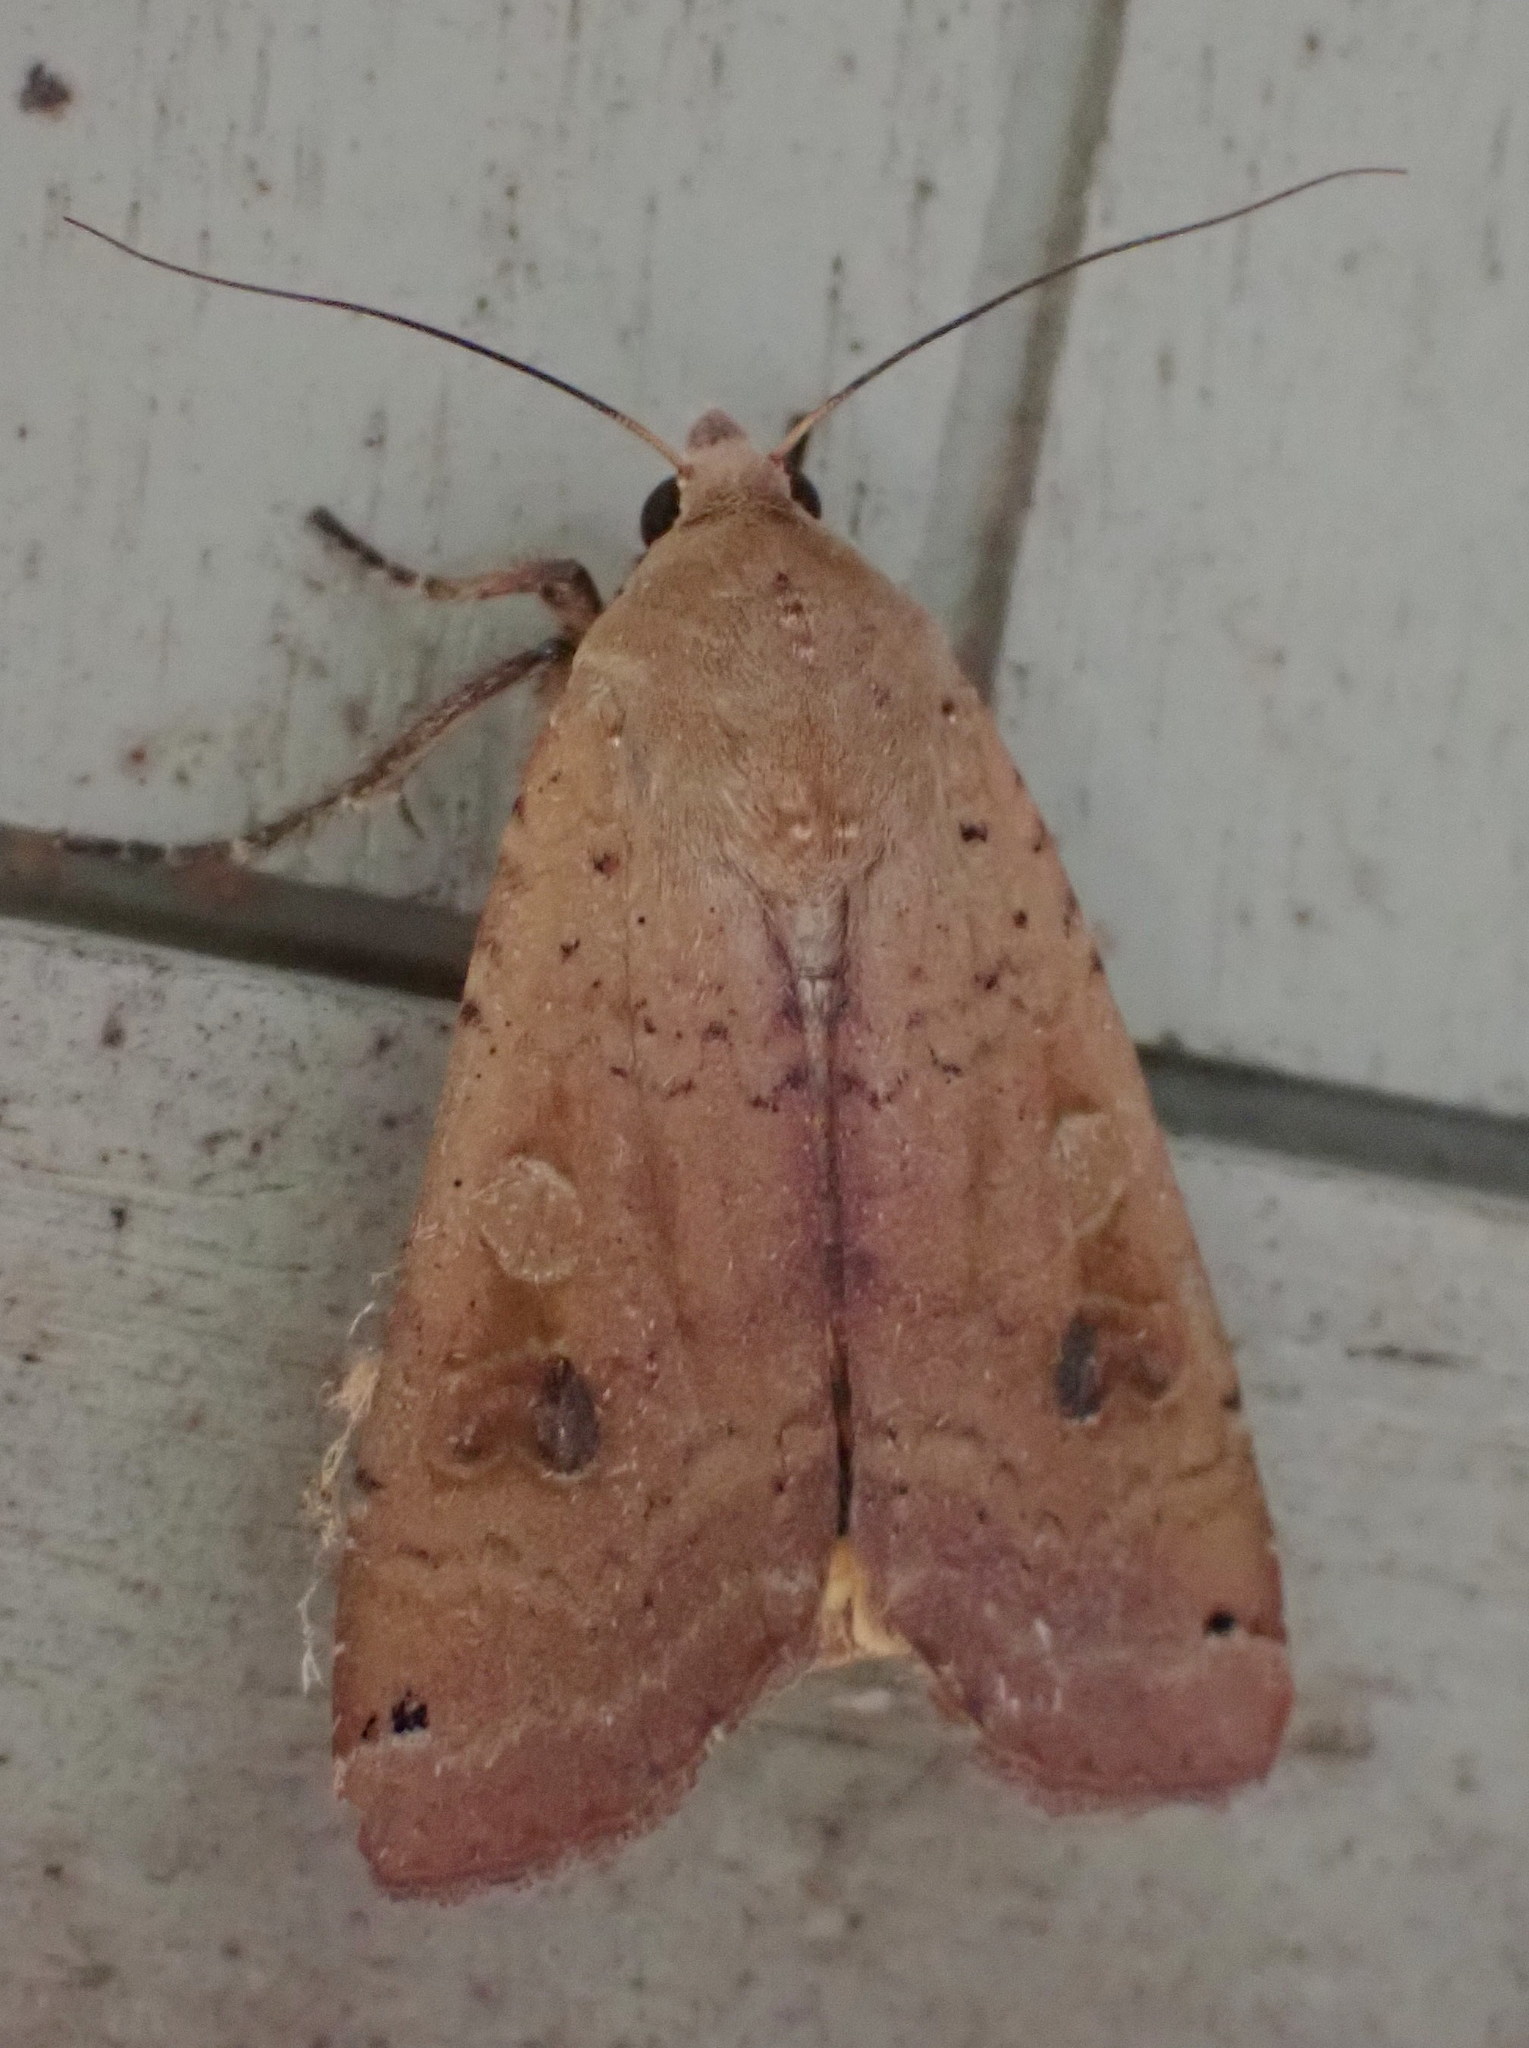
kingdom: Animalia
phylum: Arthropoda
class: Insecta
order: Lepidoptera
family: Noctuidae
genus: Noctua
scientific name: Noctua pronuba
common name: Large yellow underwing
